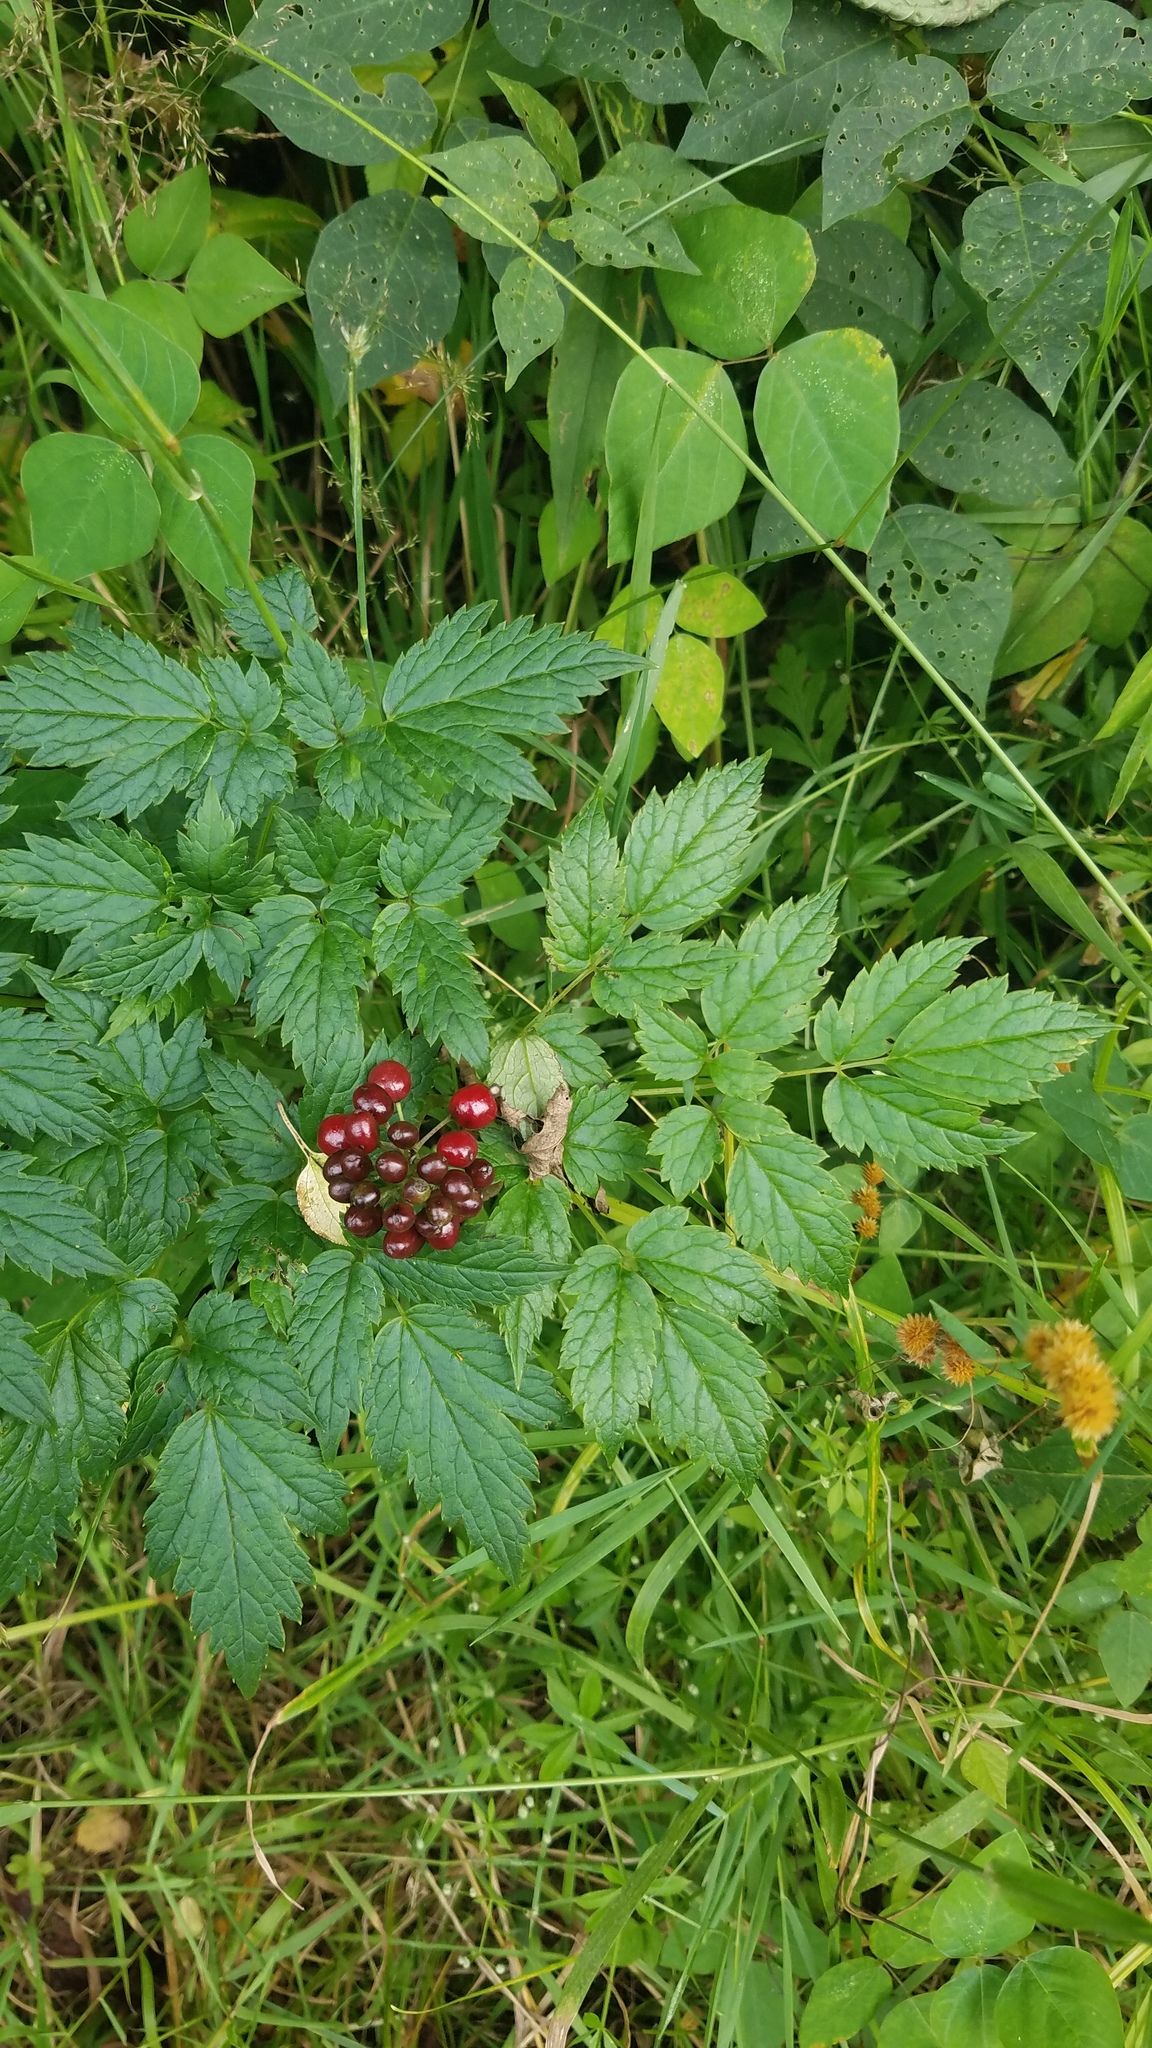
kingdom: Plantae
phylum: Tracheophyta
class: Magnoliopsida
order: Ranunculales
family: Ranunculaceae
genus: Actaea
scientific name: Actaea rubra
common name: Red baneberry
